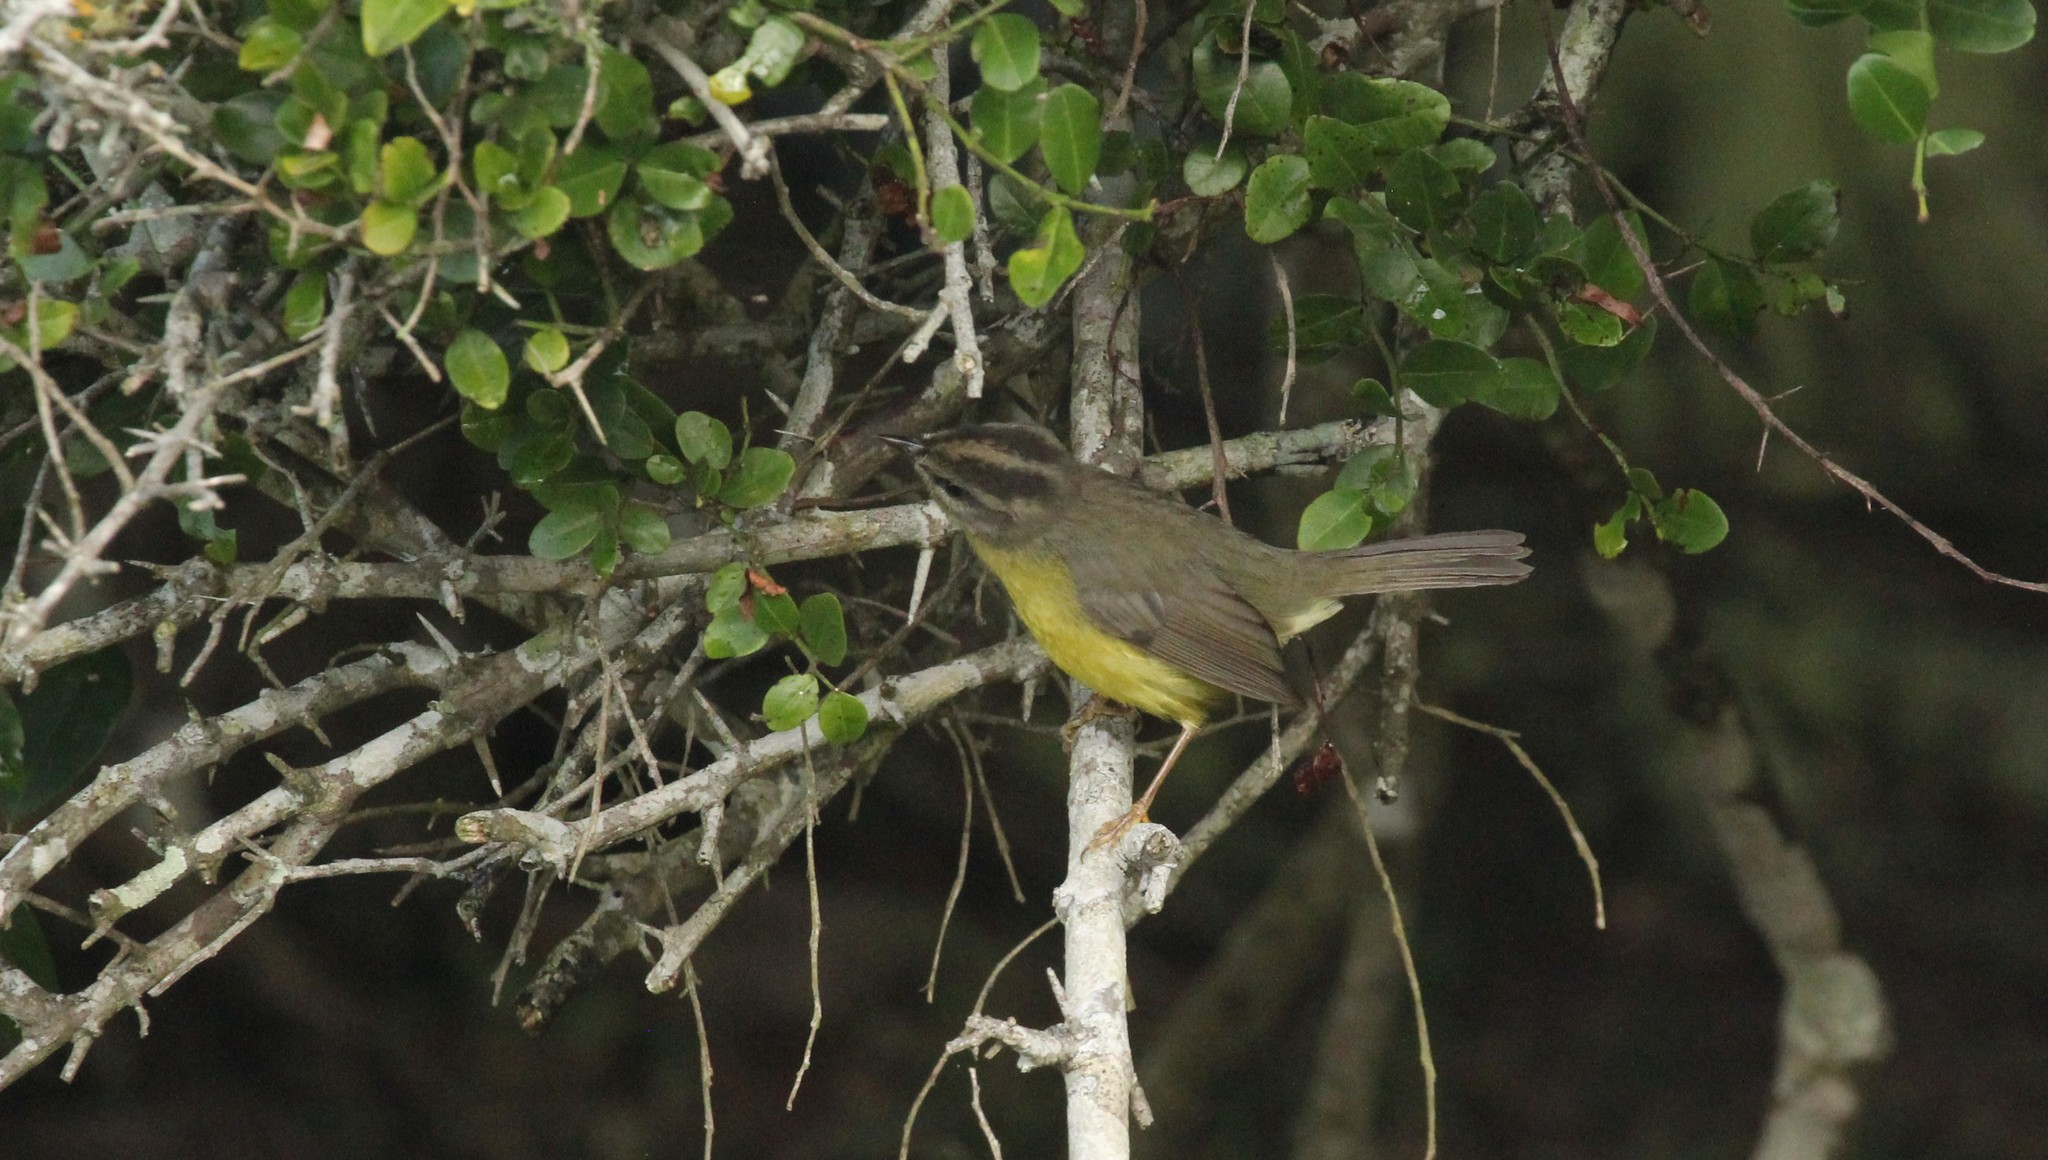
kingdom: Animalia
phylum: Chordata
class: Aves
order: Passeriformes
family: Parulidae
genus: Basileuterus
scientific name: Basileuterus culicivorus
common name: Golden-crowned warbler
